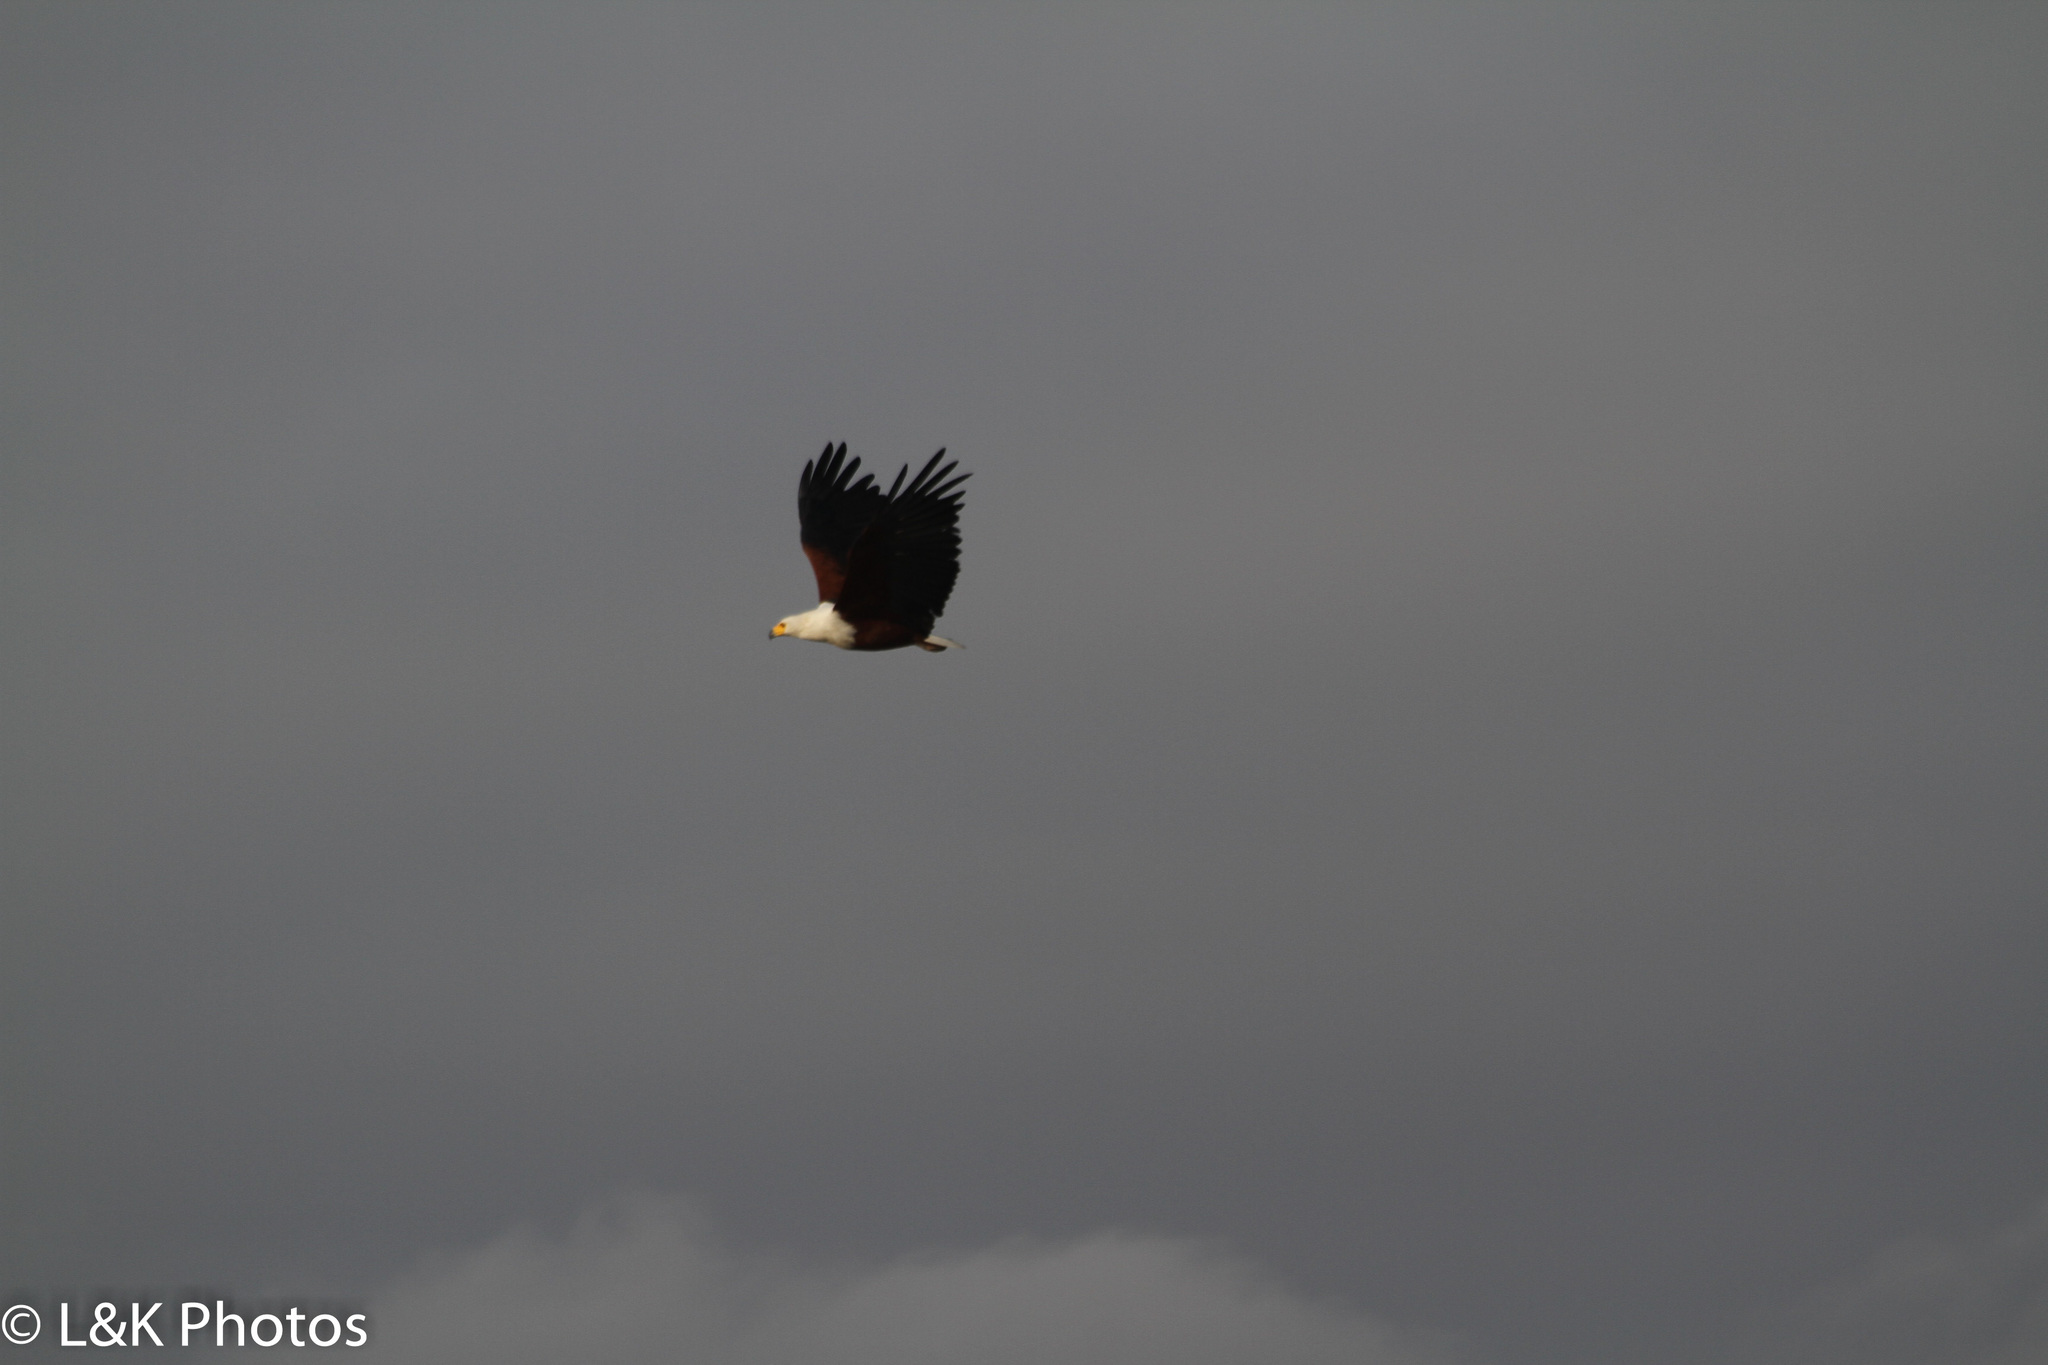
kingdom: Animalia
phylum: Chordata
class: Aves
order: Accipitriformes
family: Accipitridae
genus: Haliaeetus
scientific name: Haliaeetus vocifer
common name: African fish eagle
